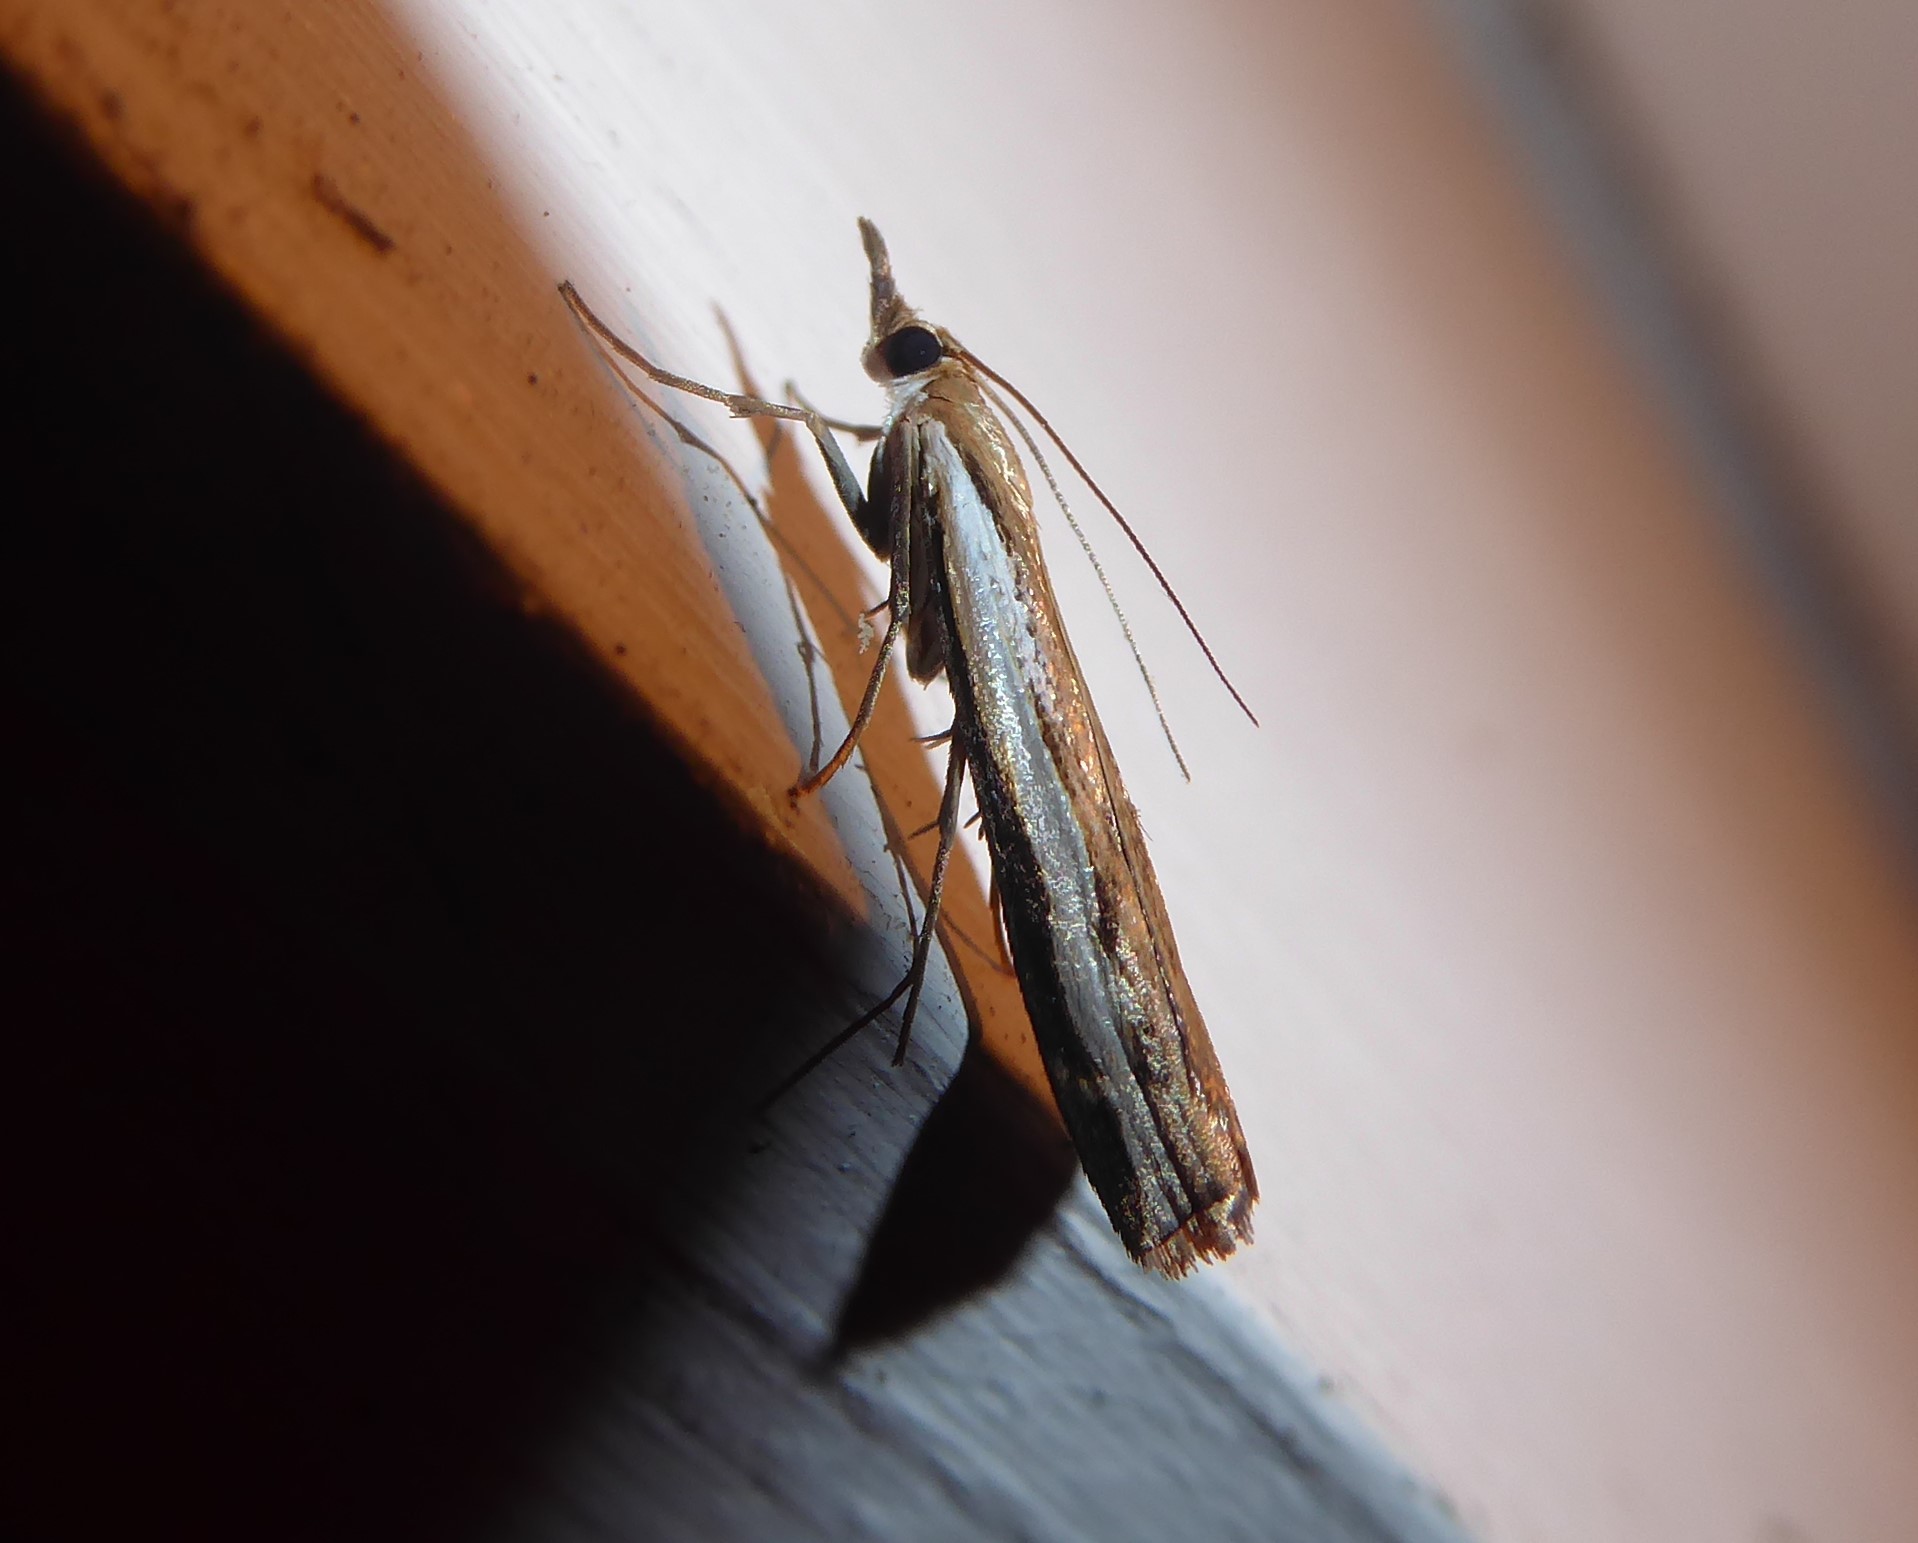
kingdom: Animalia
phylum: Arthropoda
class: Insecta
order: Lepidoptera
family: Crambidae
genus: Orocrambus
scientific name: Orocrambus flexuosellus
